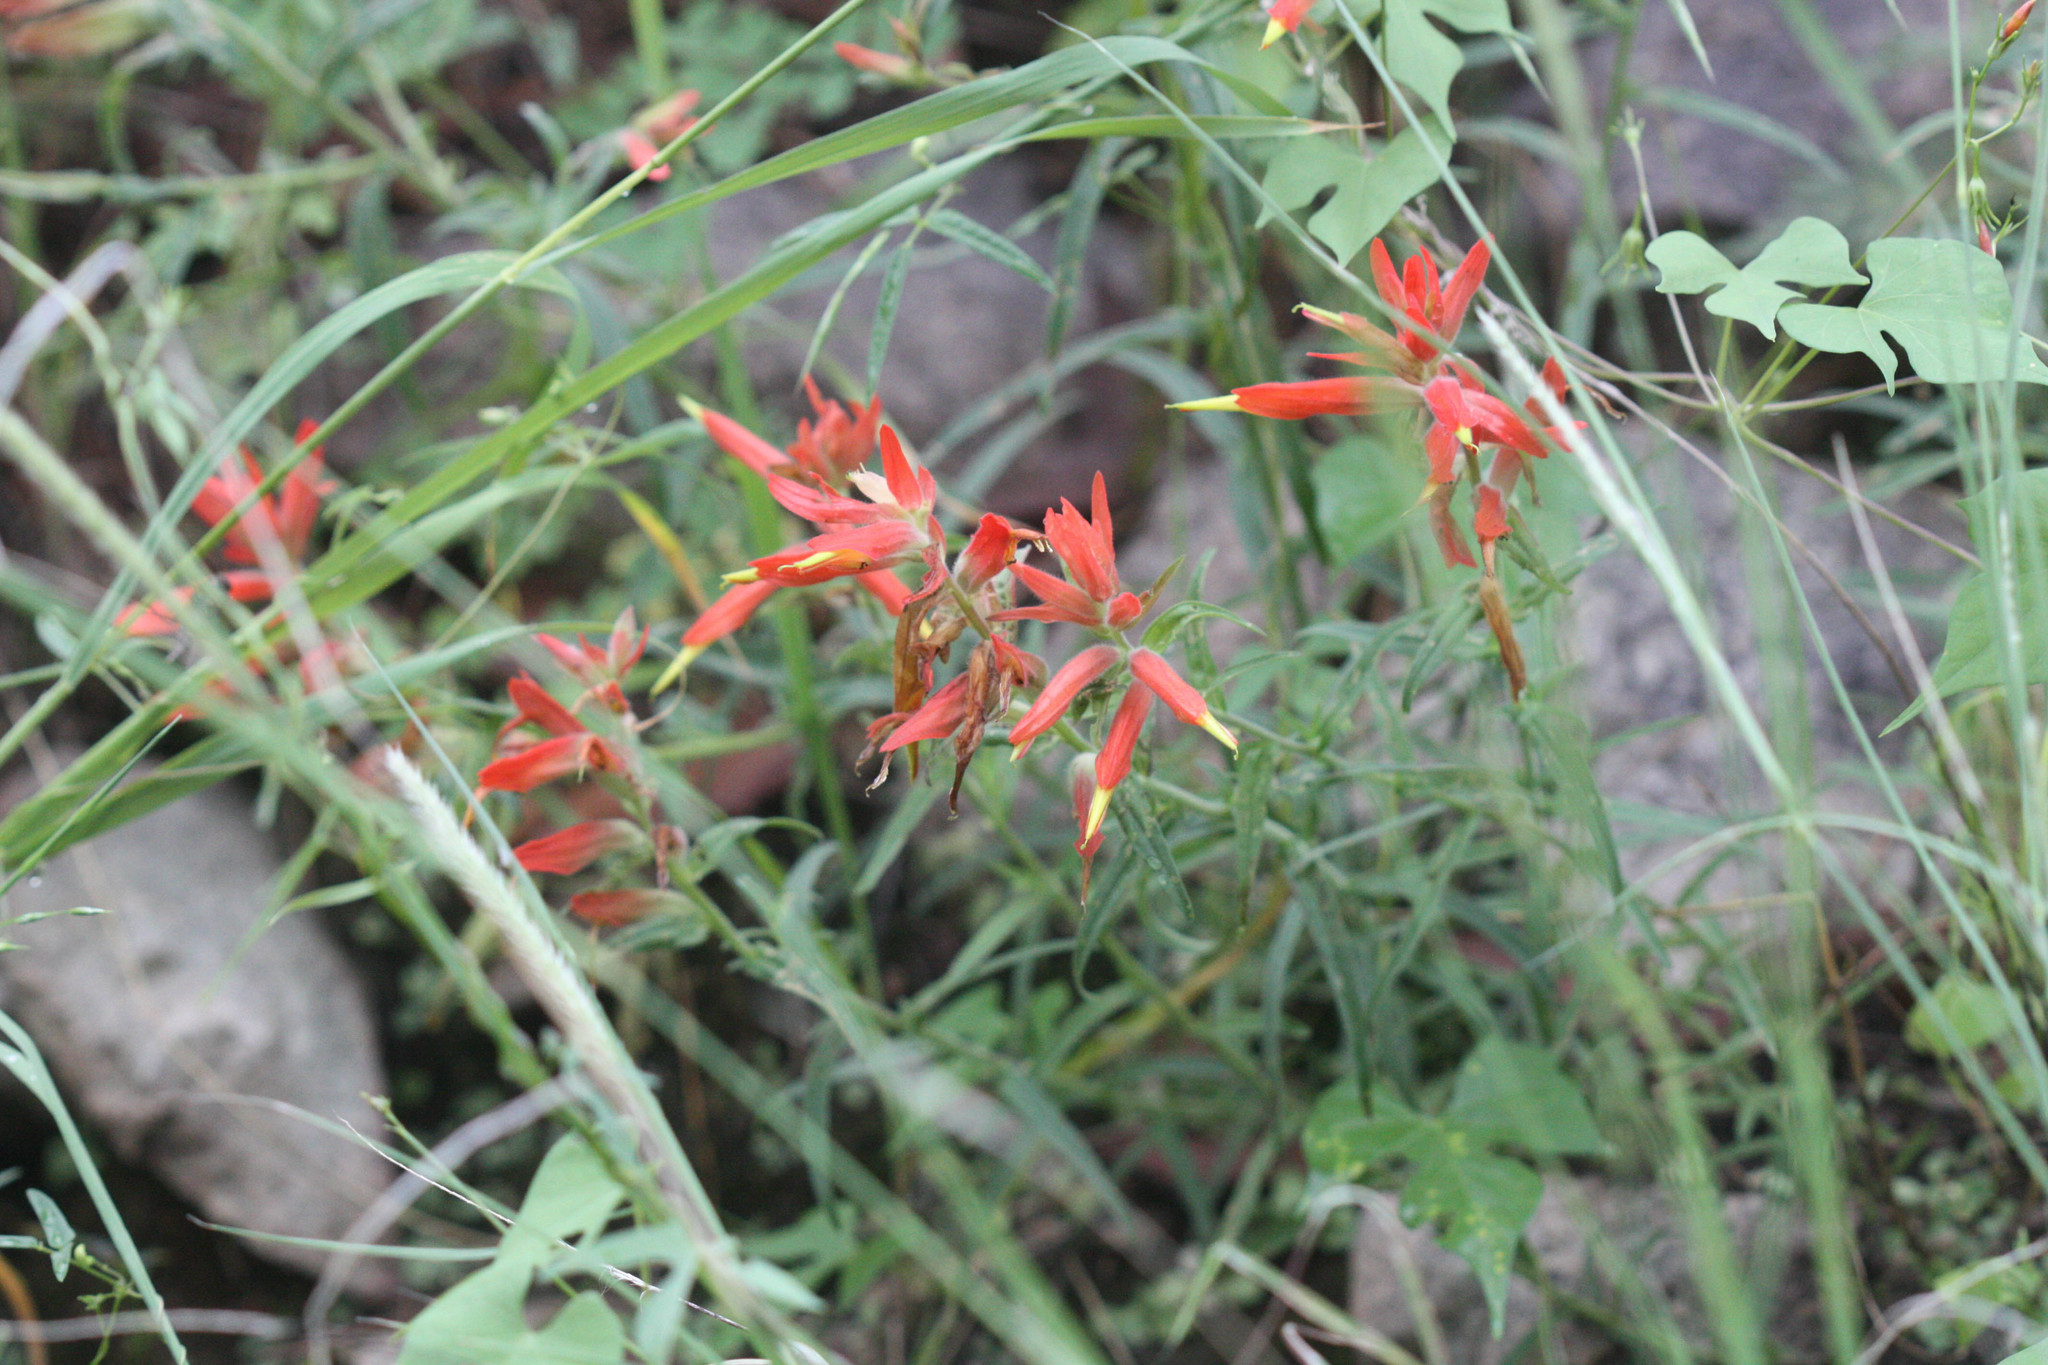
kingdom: Plantae
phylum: Tracheophyta
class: Magnoliopsida
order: Lamiales
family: Orobanchaceae
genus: Castilleja
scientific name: Castilleja tenuiflora
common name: Santa catalina indian paintbrush
